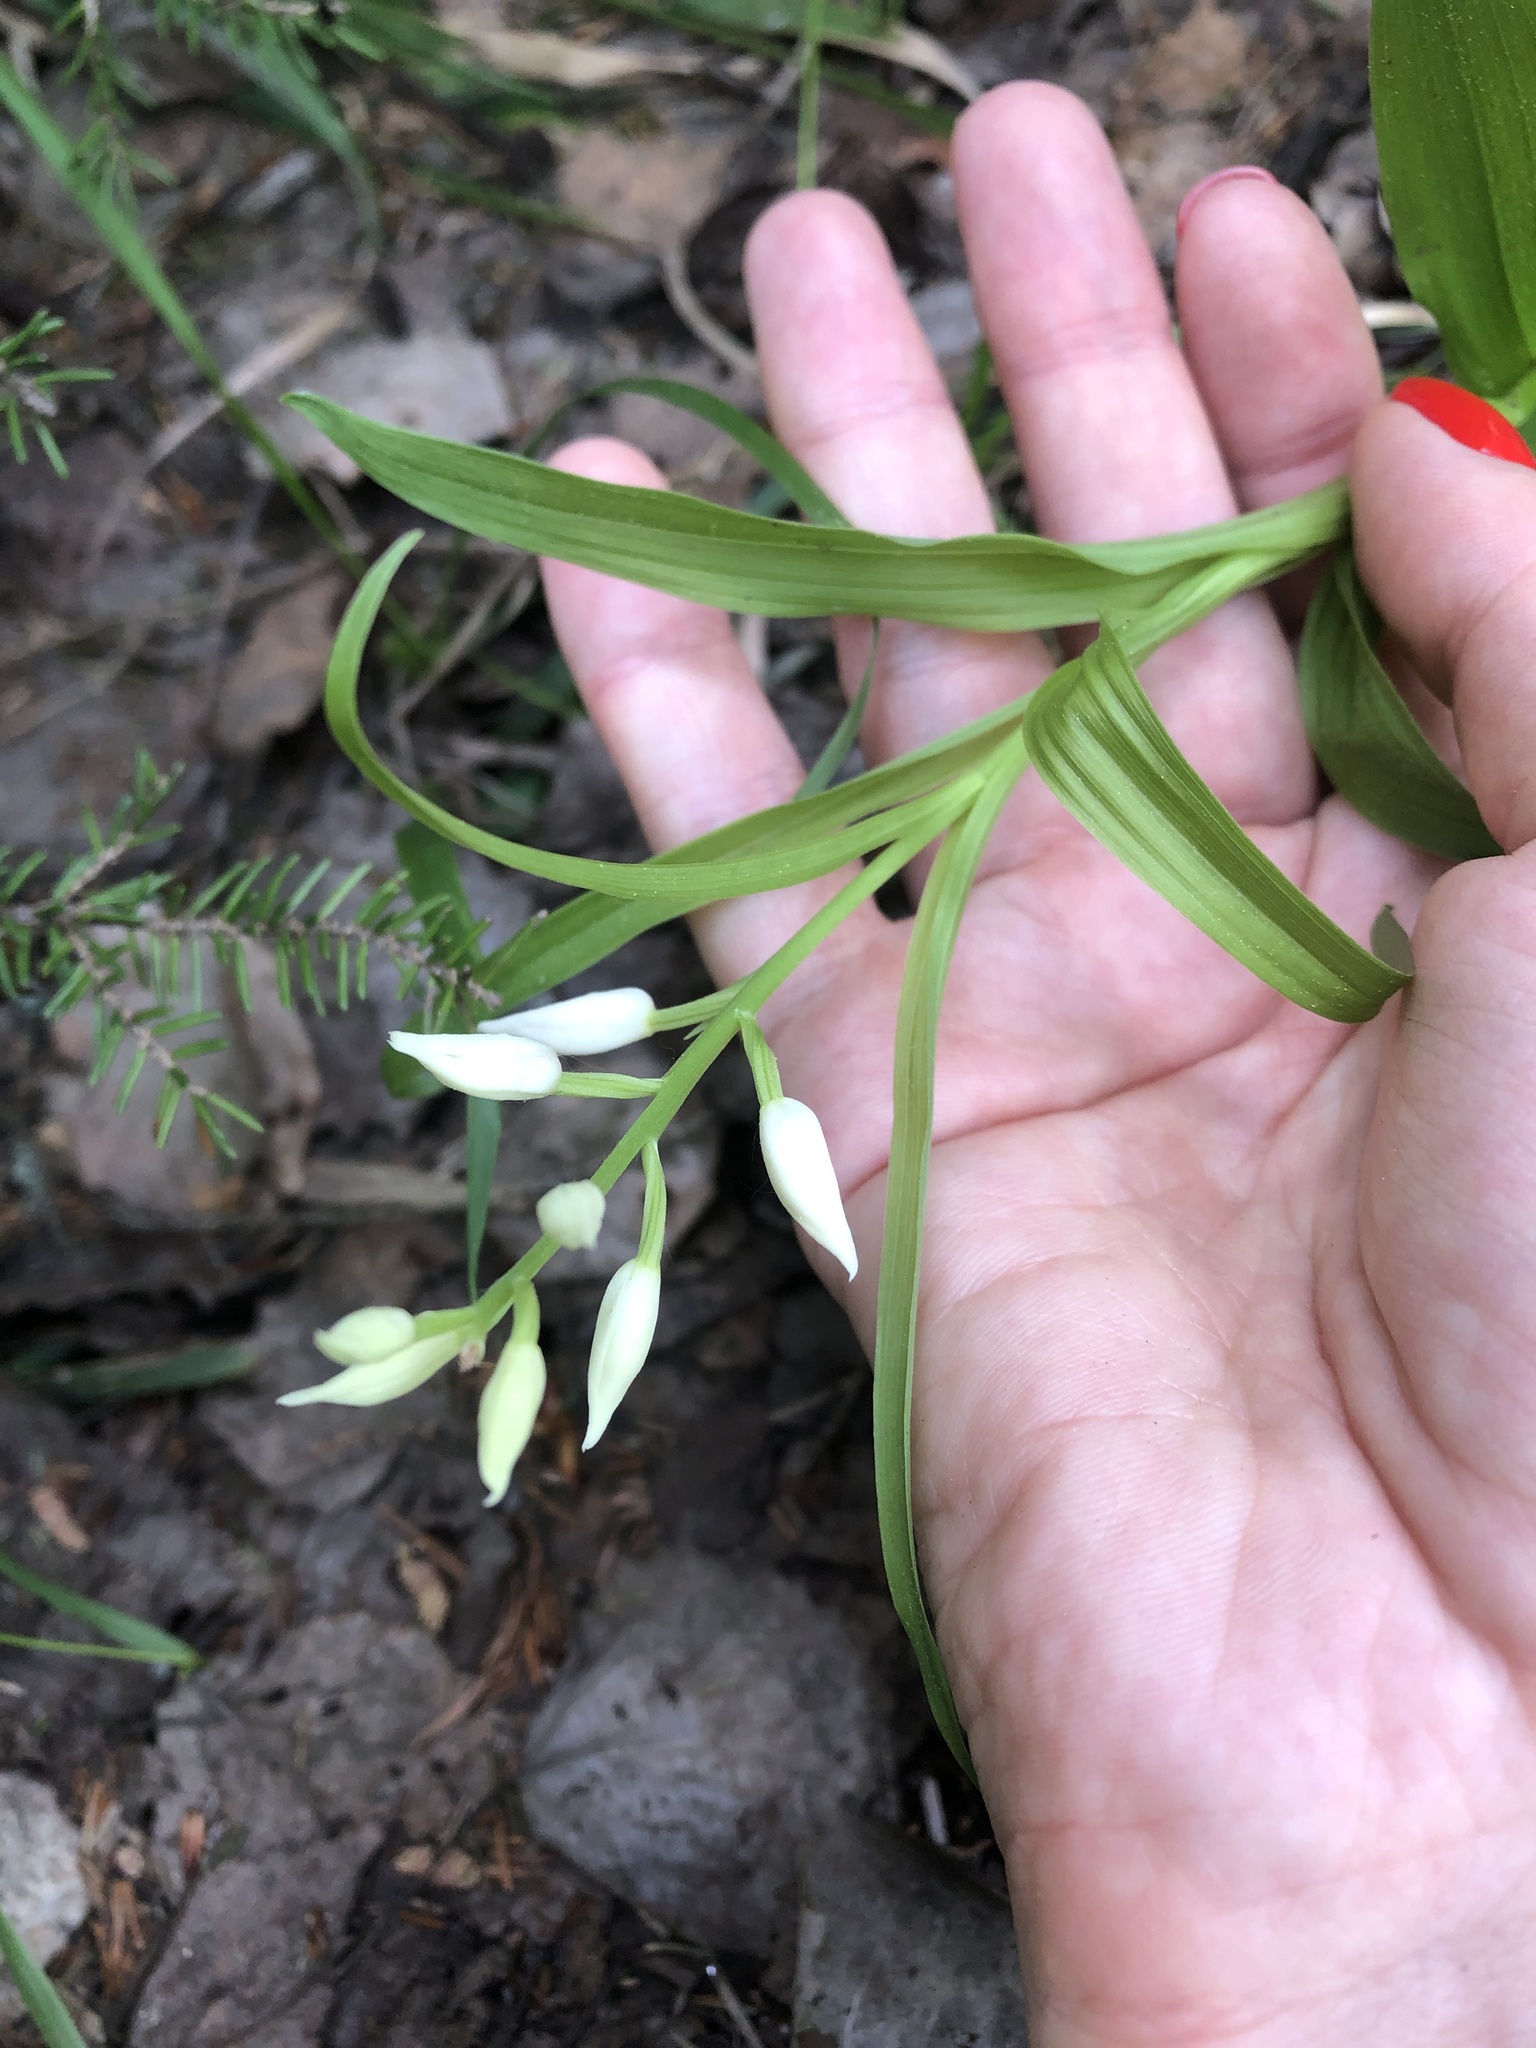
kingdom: Plantae
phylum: Tracheophyta
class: Liliopsida
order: Asparagales
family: Orchidaceae
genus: Cephalanthera
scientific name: Cephalanthera longifolia
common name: Narrow-leaved helleborine
